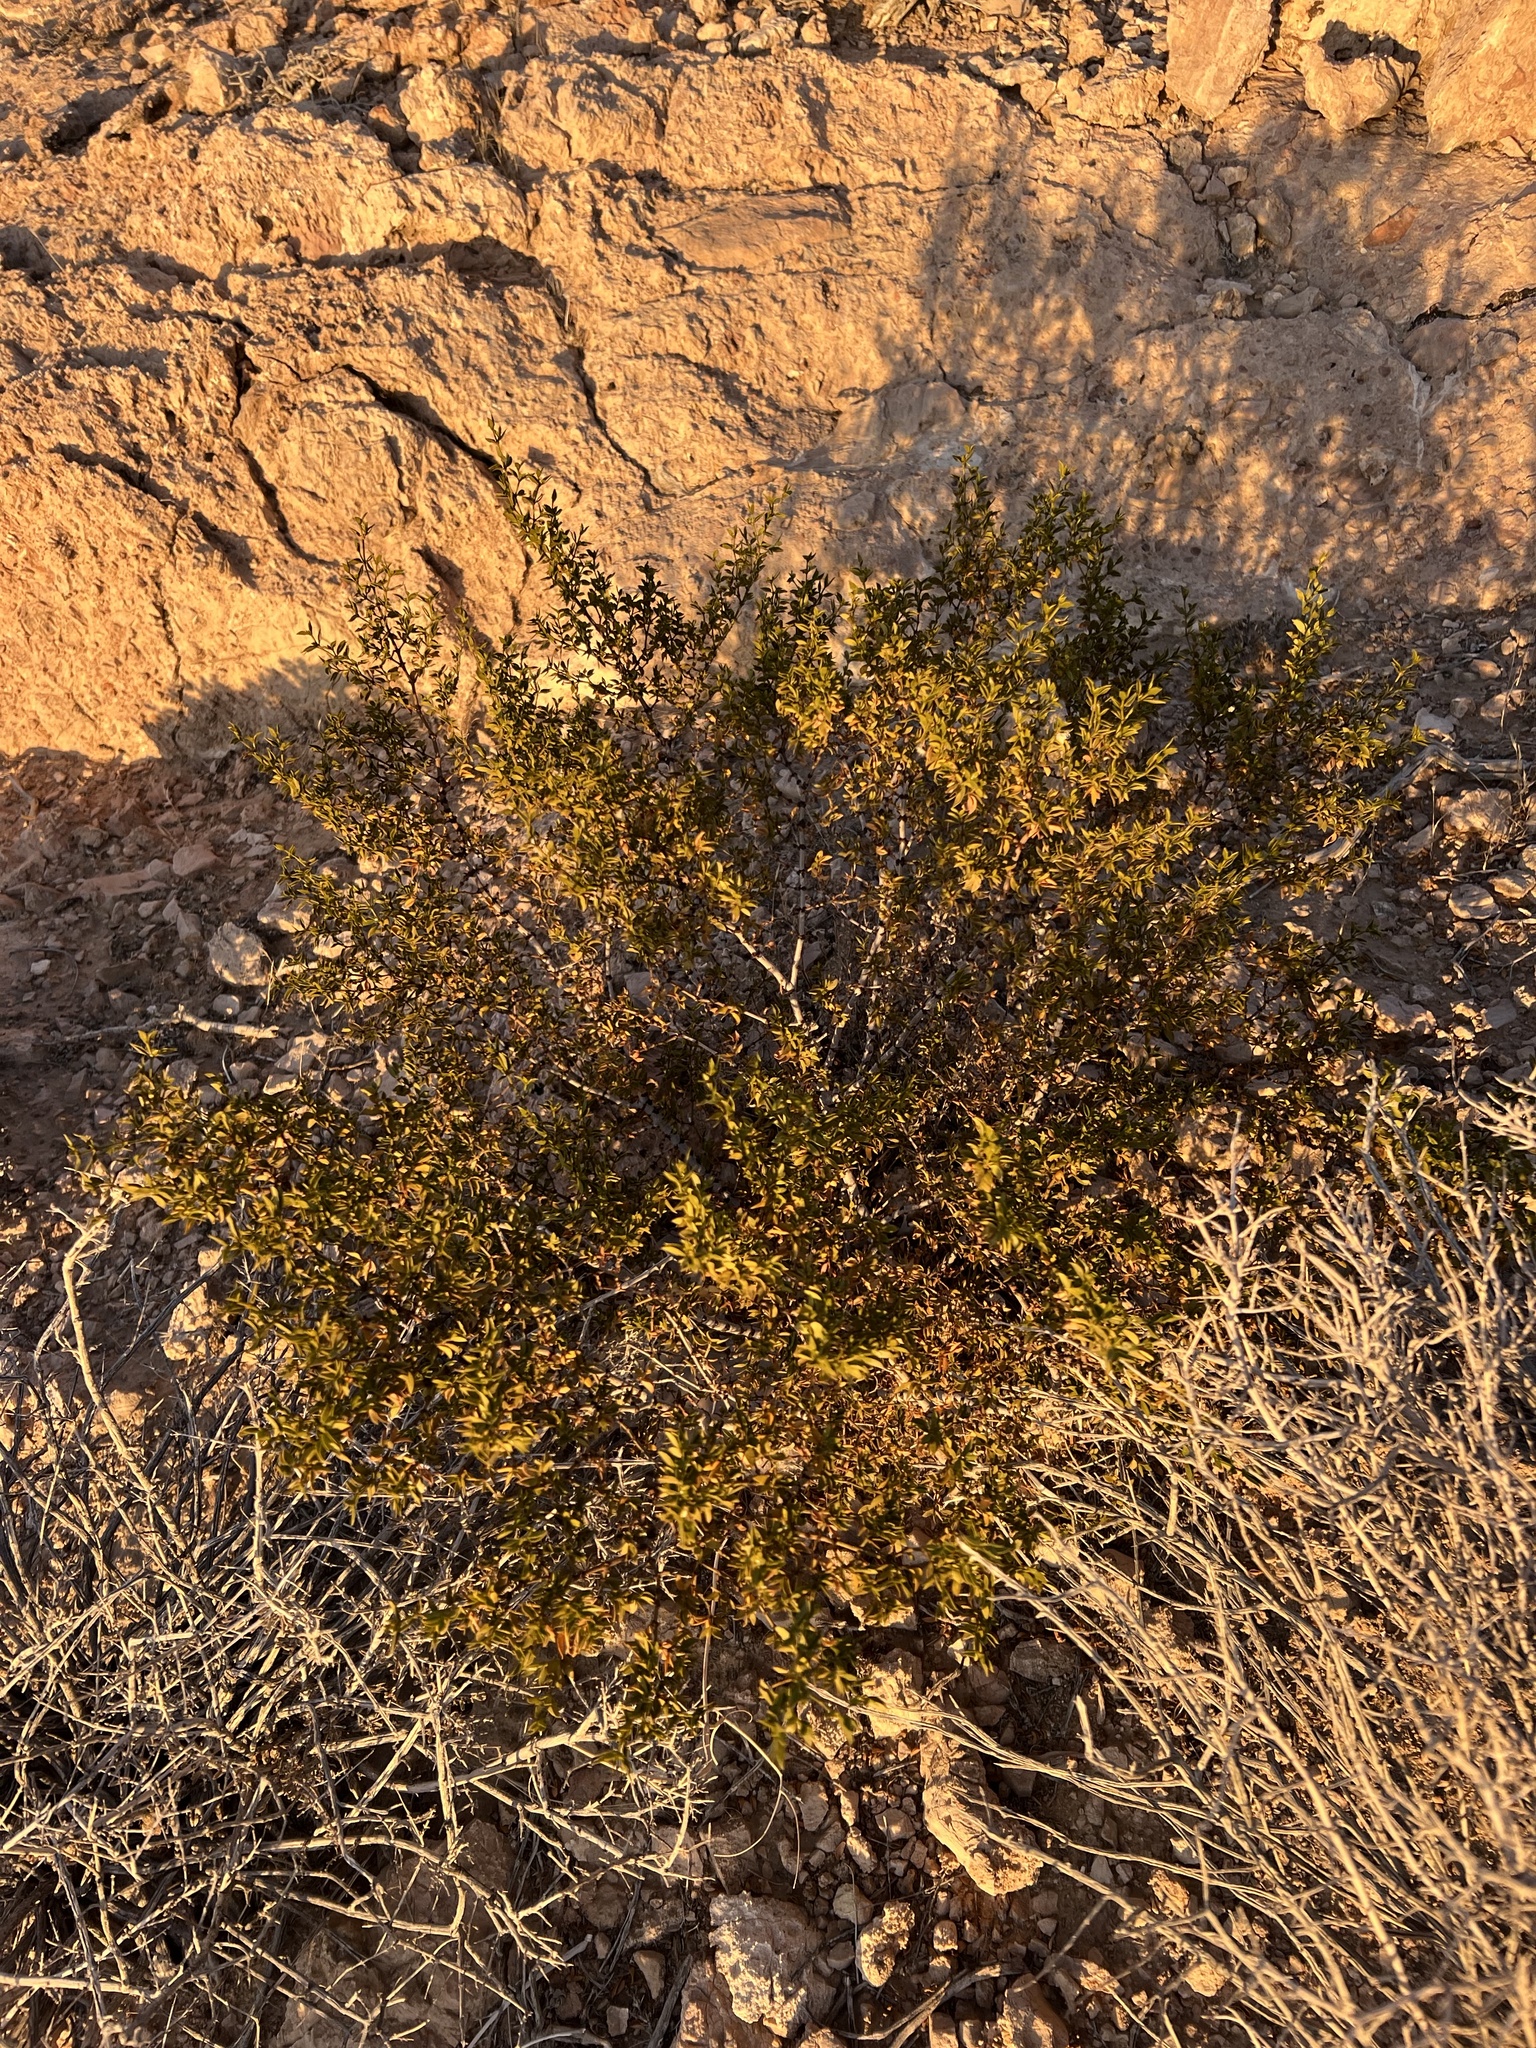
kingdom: Plantae
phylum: Tracheophyta
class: Magnoliopsida
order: Zygophyllales
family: Zygophyllaceae
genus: Larrea
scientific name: Larrea tridentata
